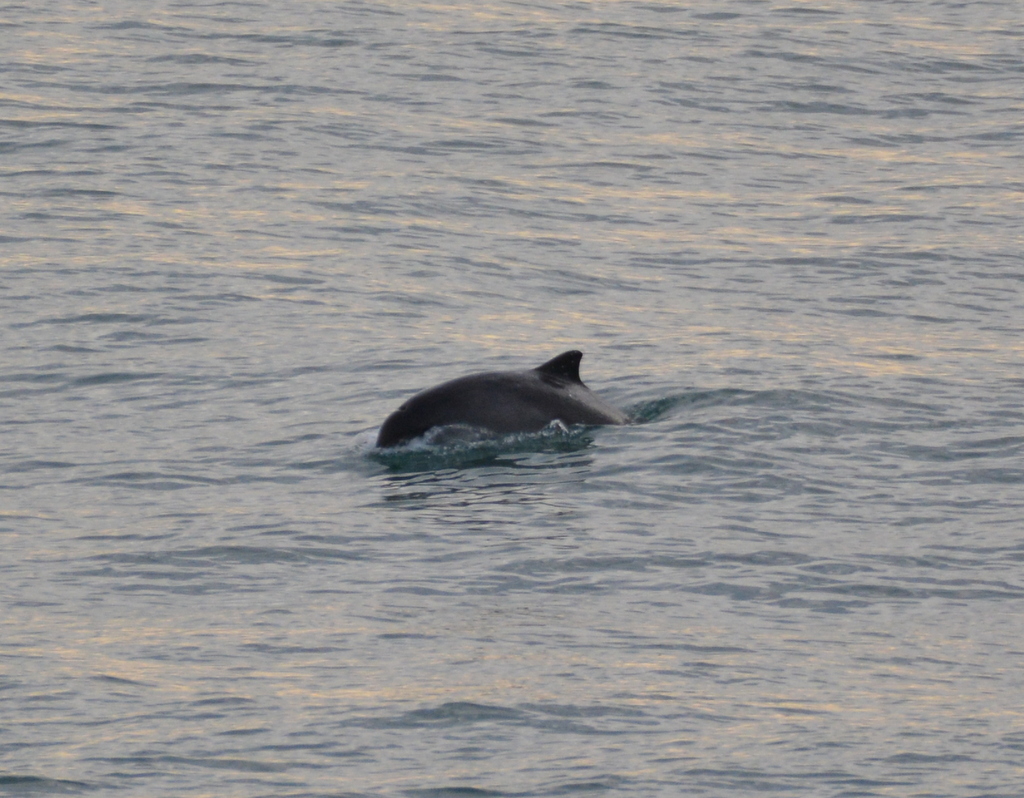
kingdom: Animalia
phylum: Chordata
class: Mammalia
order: Cetacea
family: Phocoenidae
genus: Phocoena
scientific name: Phocoena phocoena
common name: Harbor porpoise
